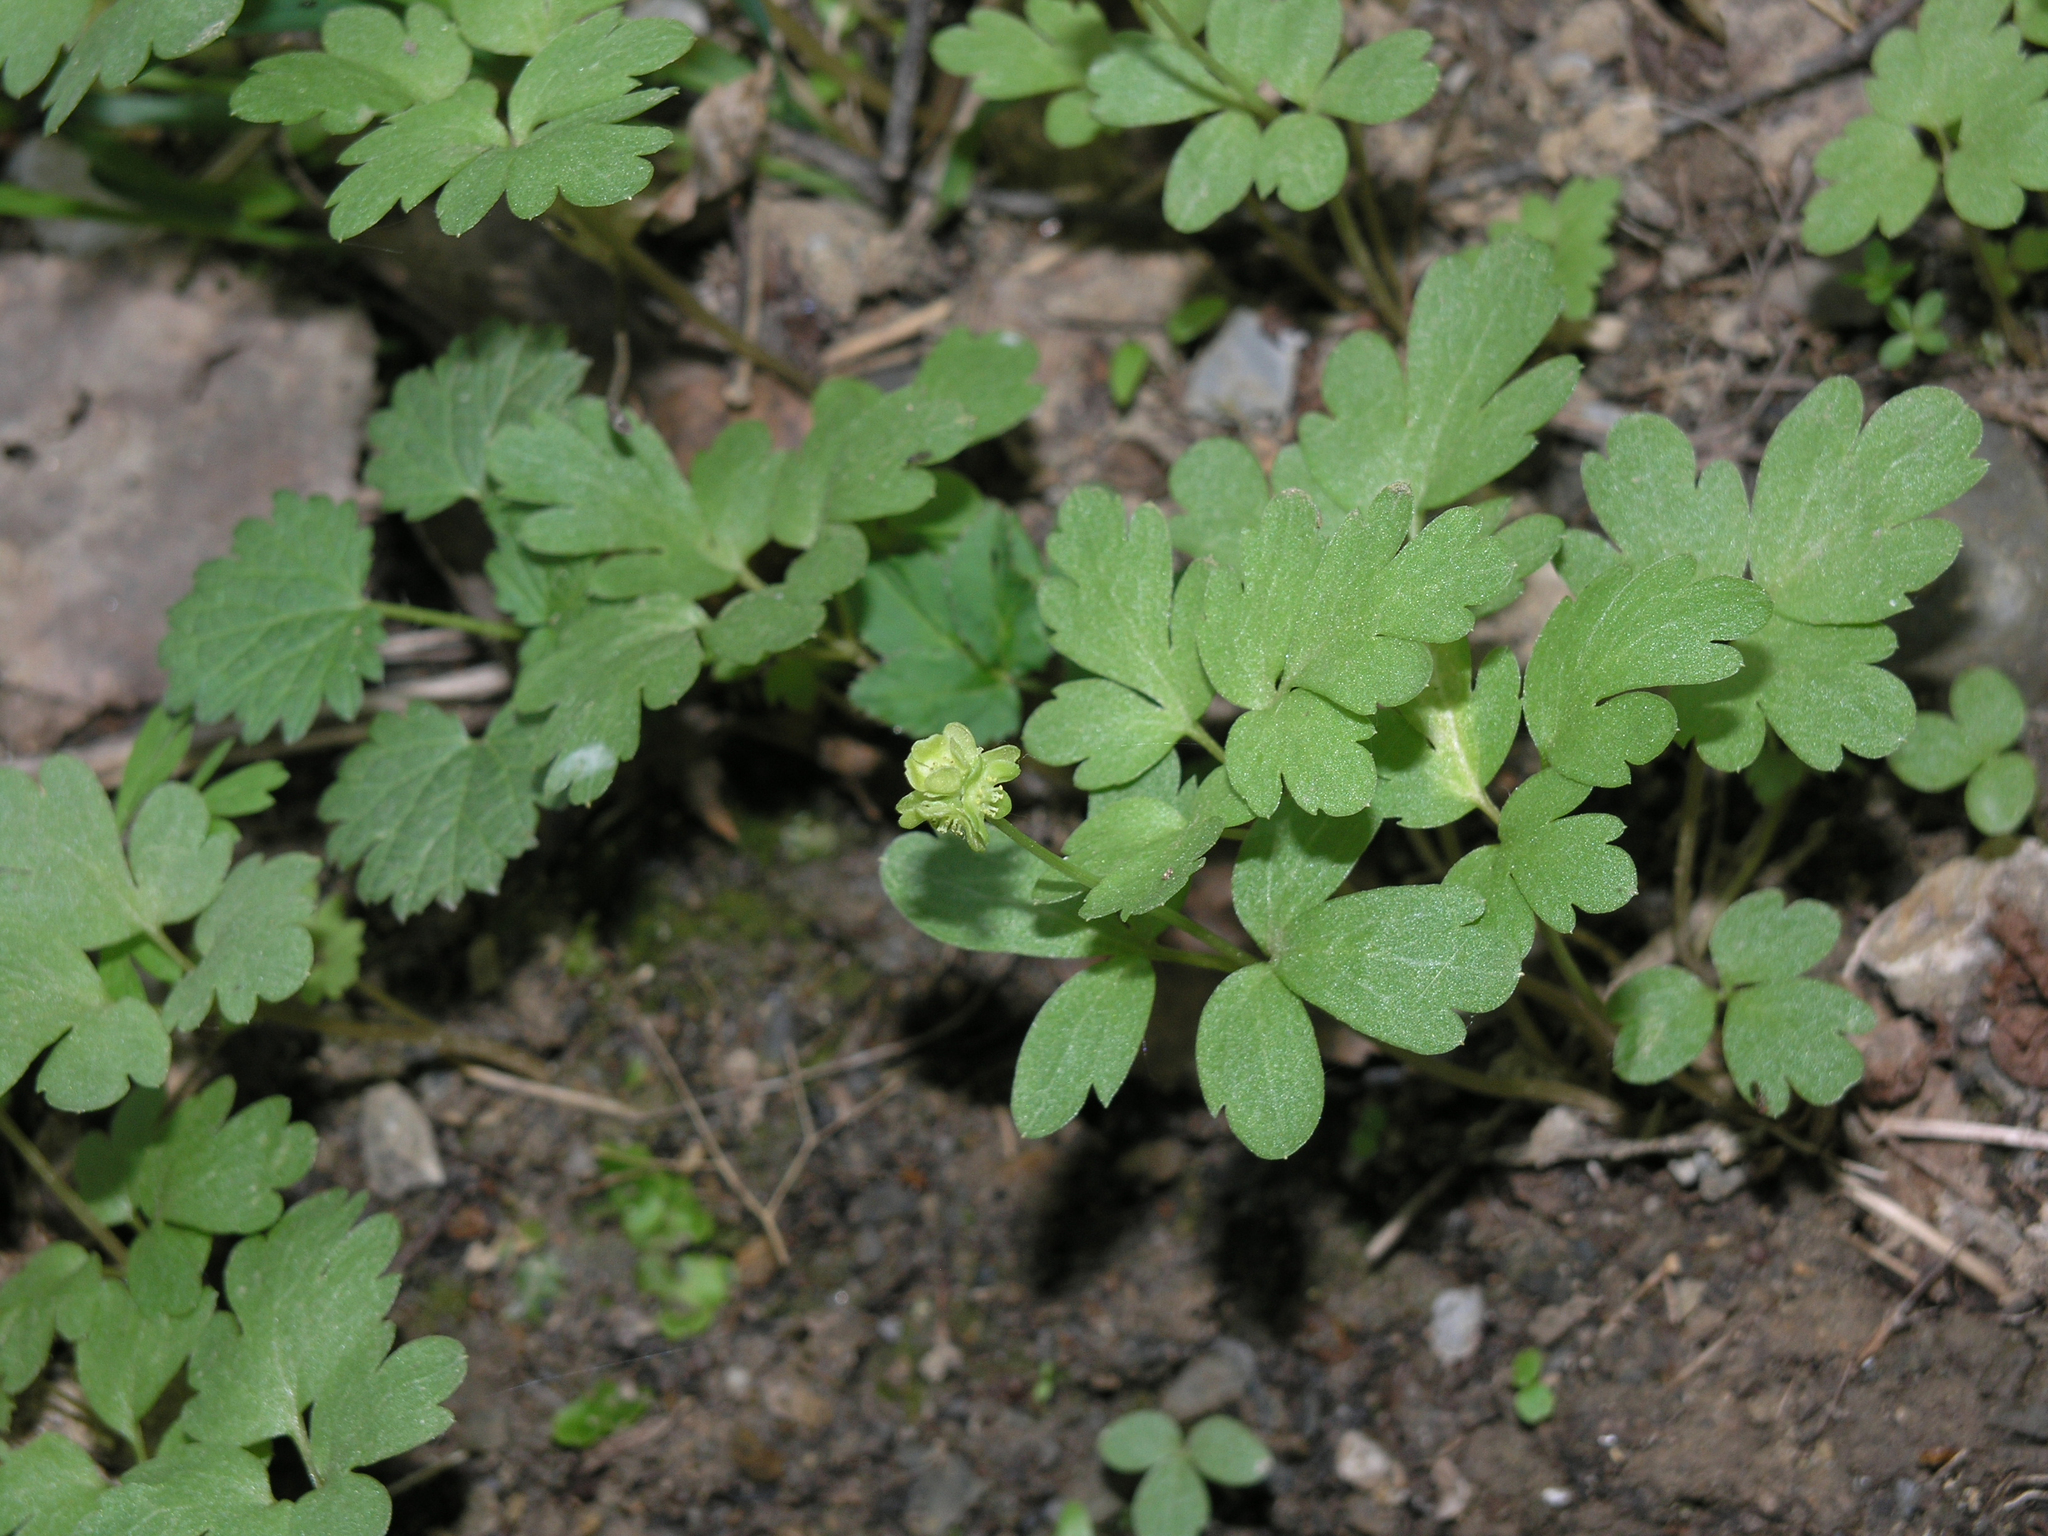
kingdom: Plantae
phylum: Tracheophyta
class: Magnoliopsida
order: Dipsacales
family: Viburnaceae
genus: Adoxa
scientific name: Adoxa moschatellina
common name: Moschatel
